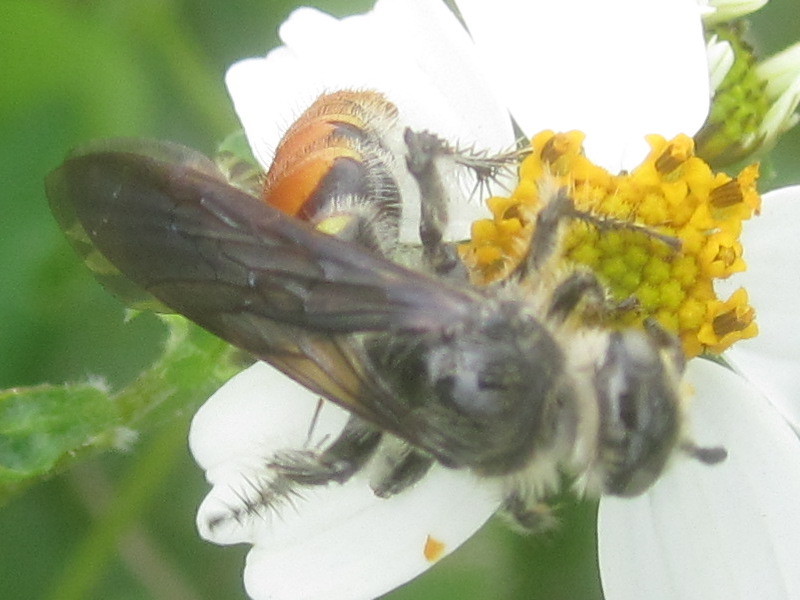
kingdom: Animalia
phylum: Arthropoda
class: Insecta
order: Hymenoptera
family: Scoliidae
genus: Dielis
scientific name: Dielis tolteca
